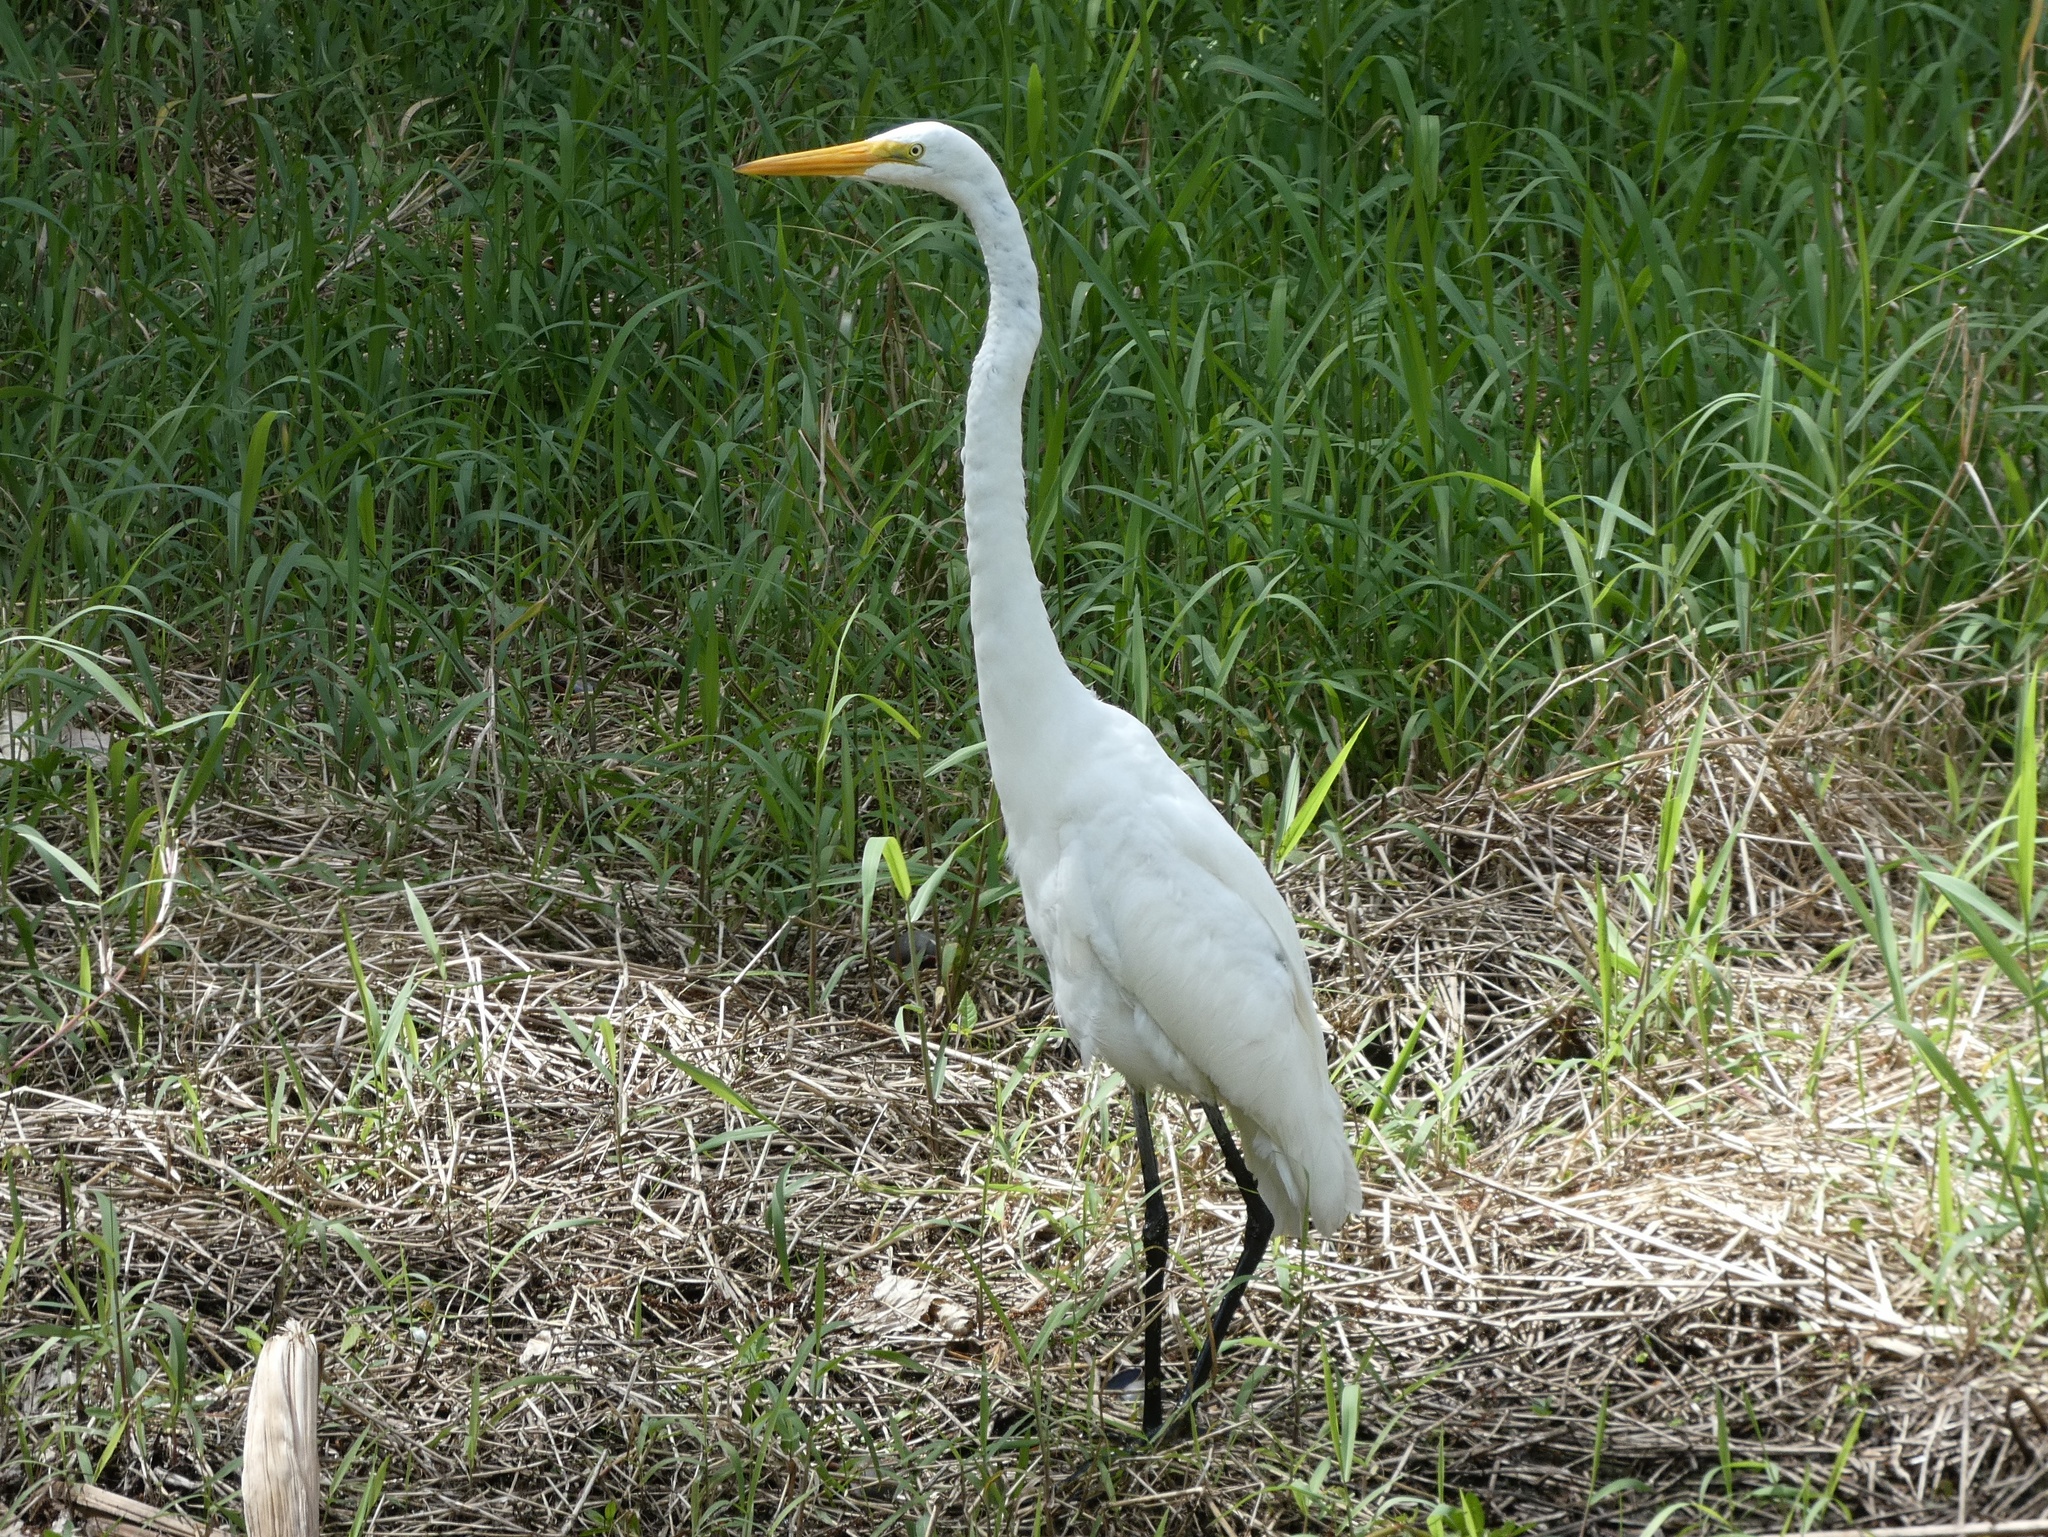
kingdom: Animalia
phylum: Chordata
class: Aves
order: Pelecaniformes
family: Ardeidae
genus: Ardea
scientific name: Ardea alba
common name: Great egret
